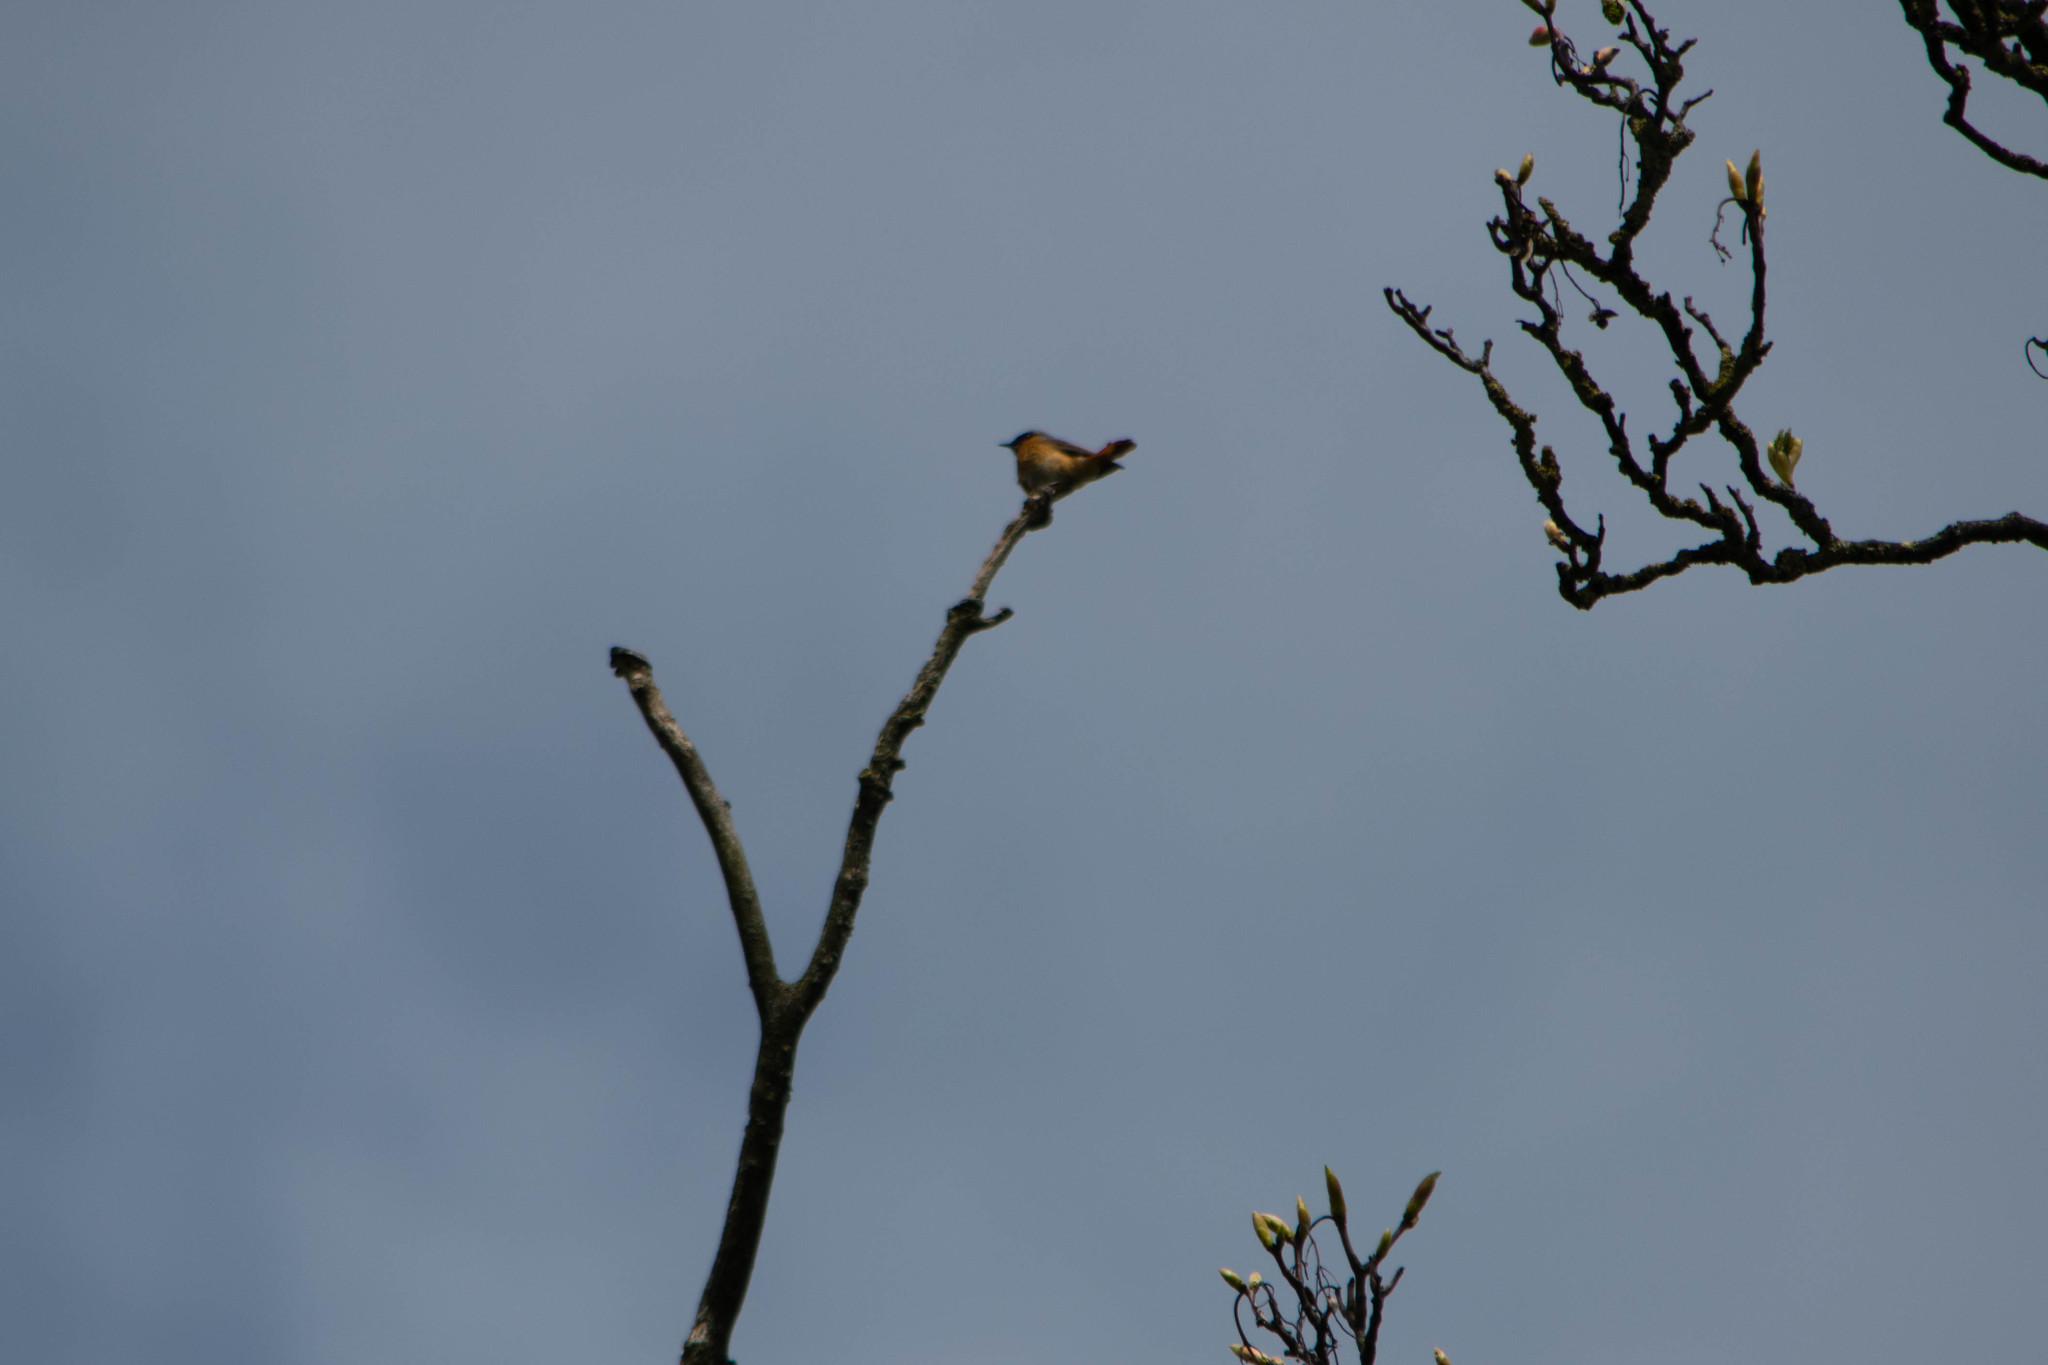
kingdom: Animalia
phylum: Chordata
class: Aves
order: Passeriformes
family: Muscicapidae
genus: Phoenicurus
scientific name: Phoenicurus phoenicurus
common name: Common redstart
